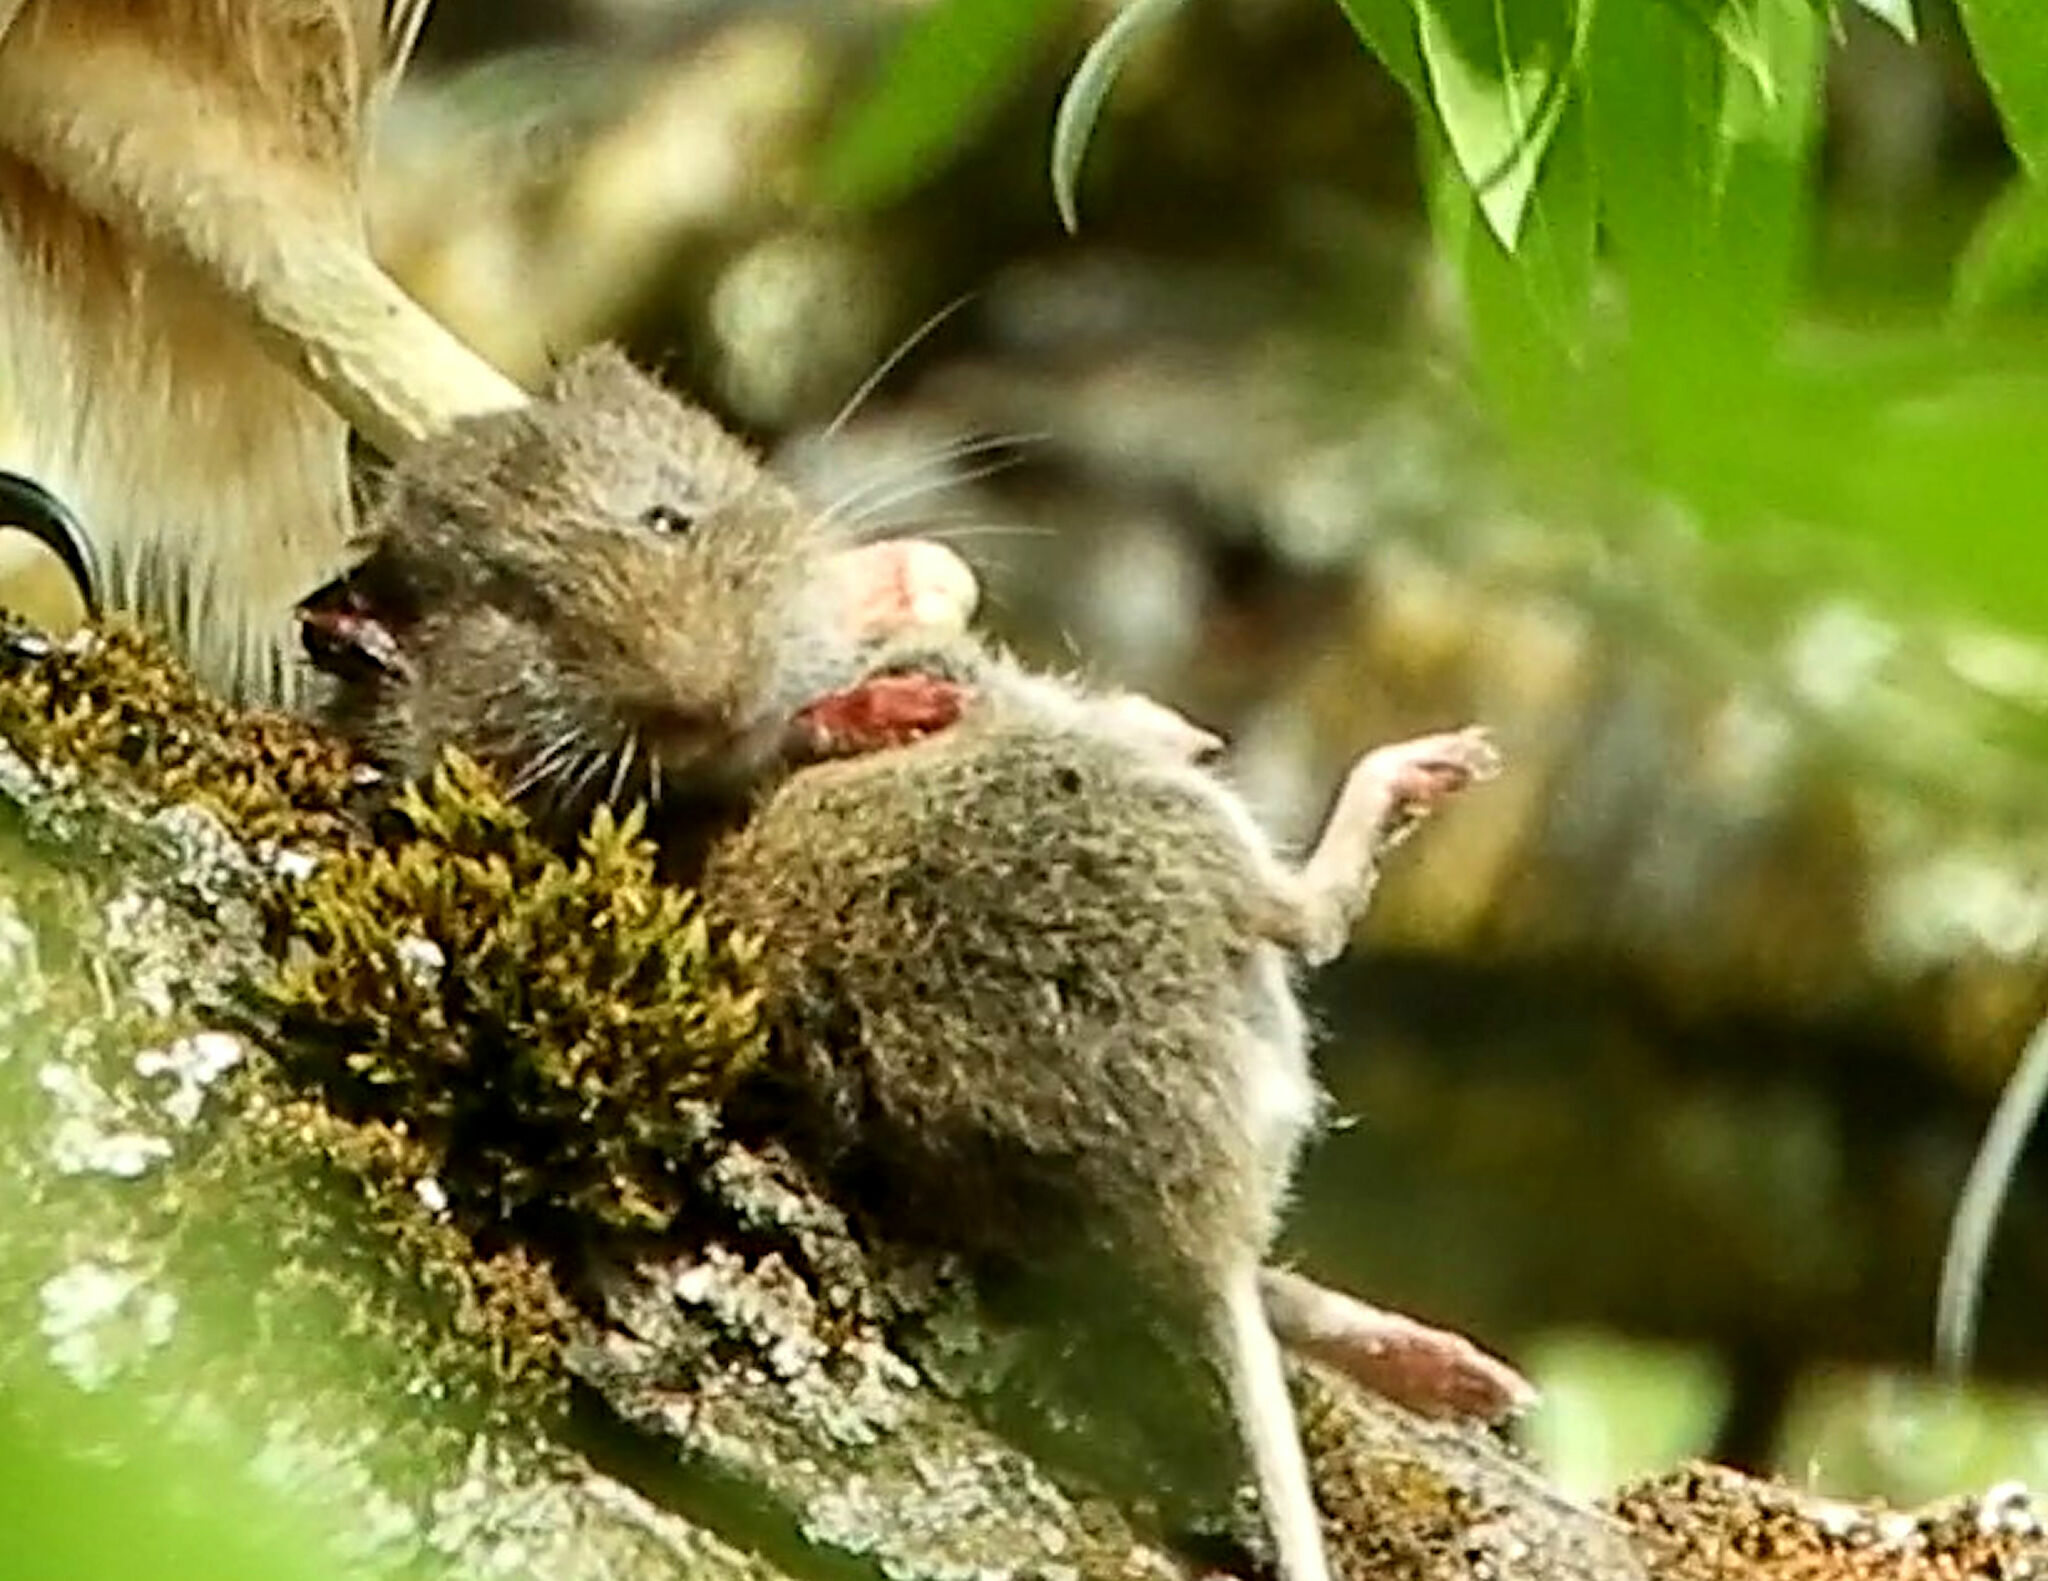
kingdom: Animalia
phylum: Chordata
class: Mammalia
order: Rodentia
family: Cricetidae
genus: Microtus
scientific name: Microtus californicus
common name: California vole
